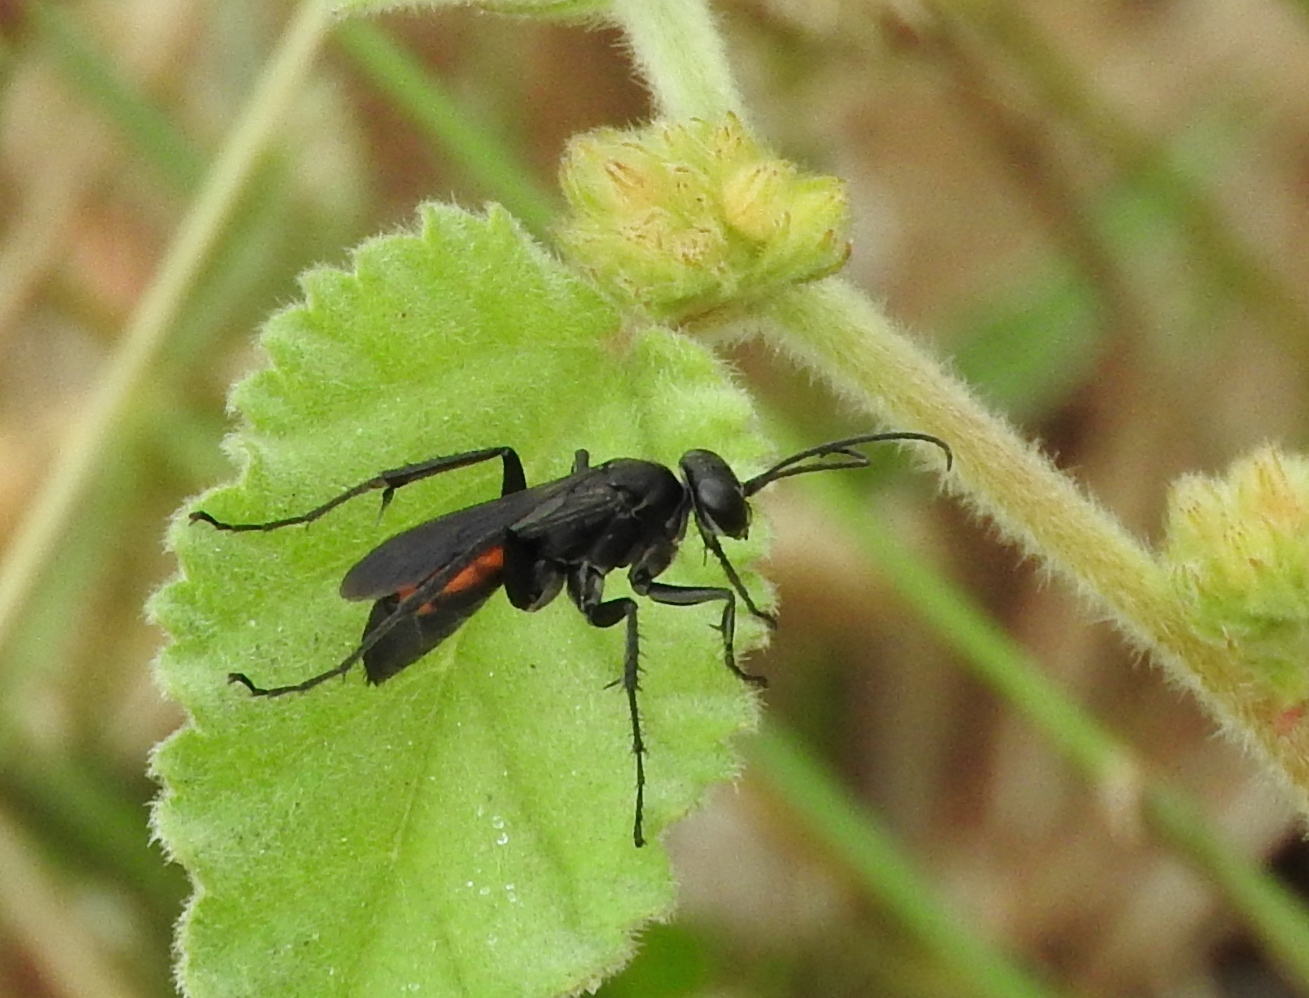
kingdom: Animalia
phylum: Arthropoda
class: Insecta
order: Hymenoptera
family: Pompilidae
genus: Anoplius
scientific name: Anoplius
